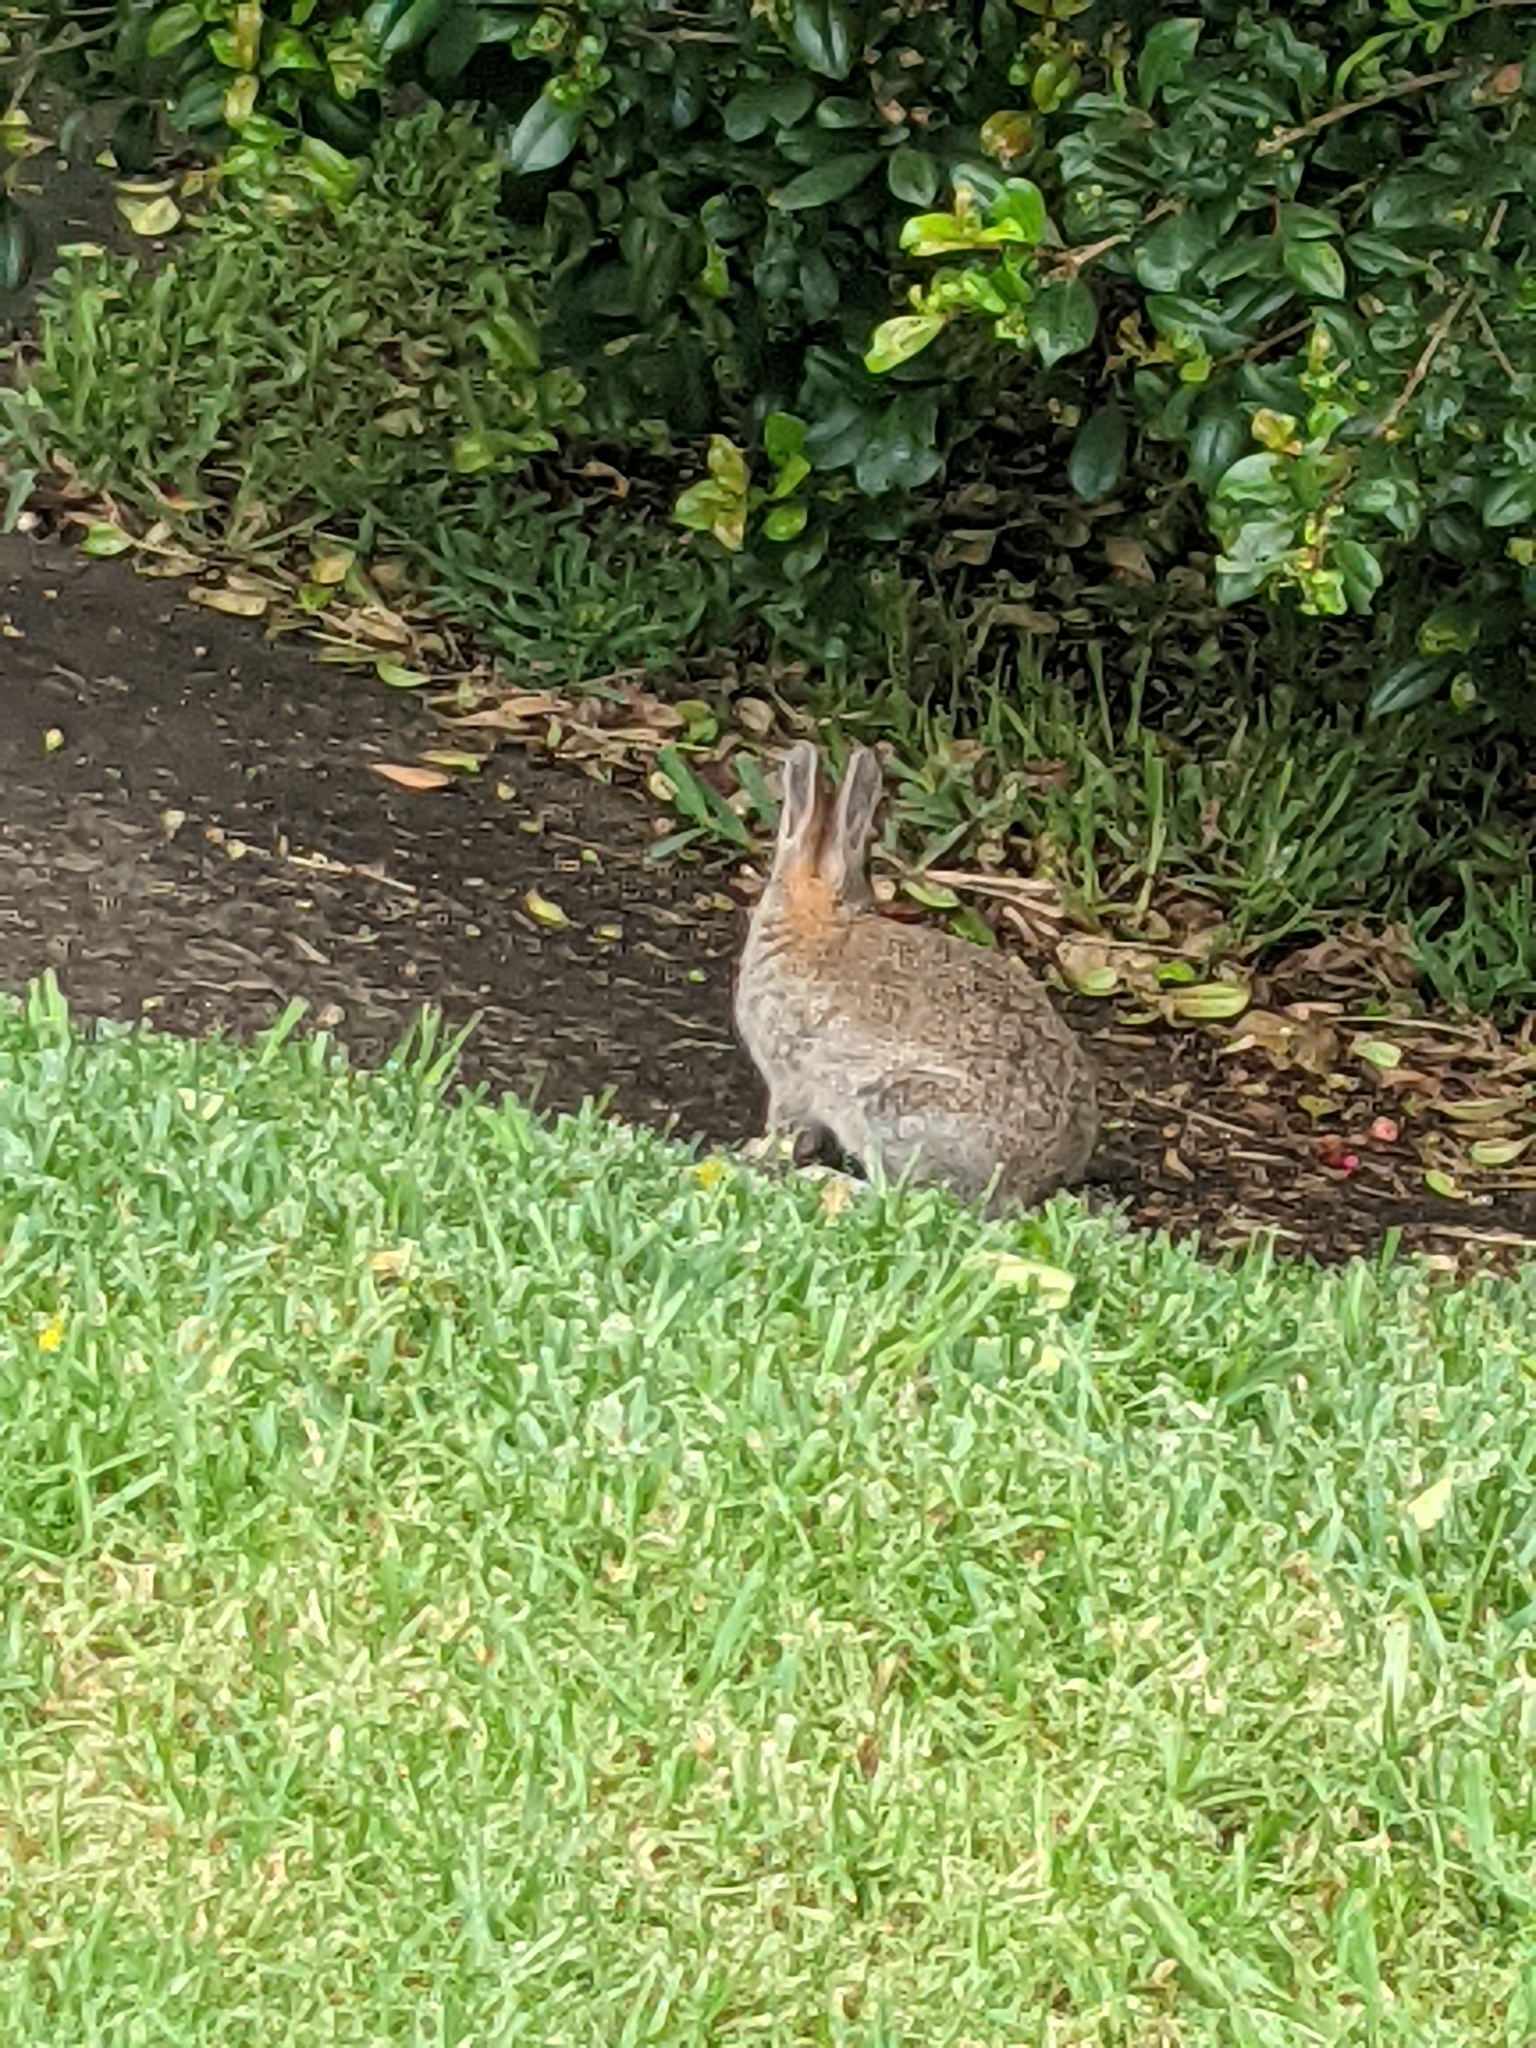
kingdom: Animalia
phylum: Chordata
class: Mammalia
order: Lagomorpha
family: Leporidae
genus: Oryctolagus
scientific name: Oryctolagus cuniculus
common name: European rabbit
